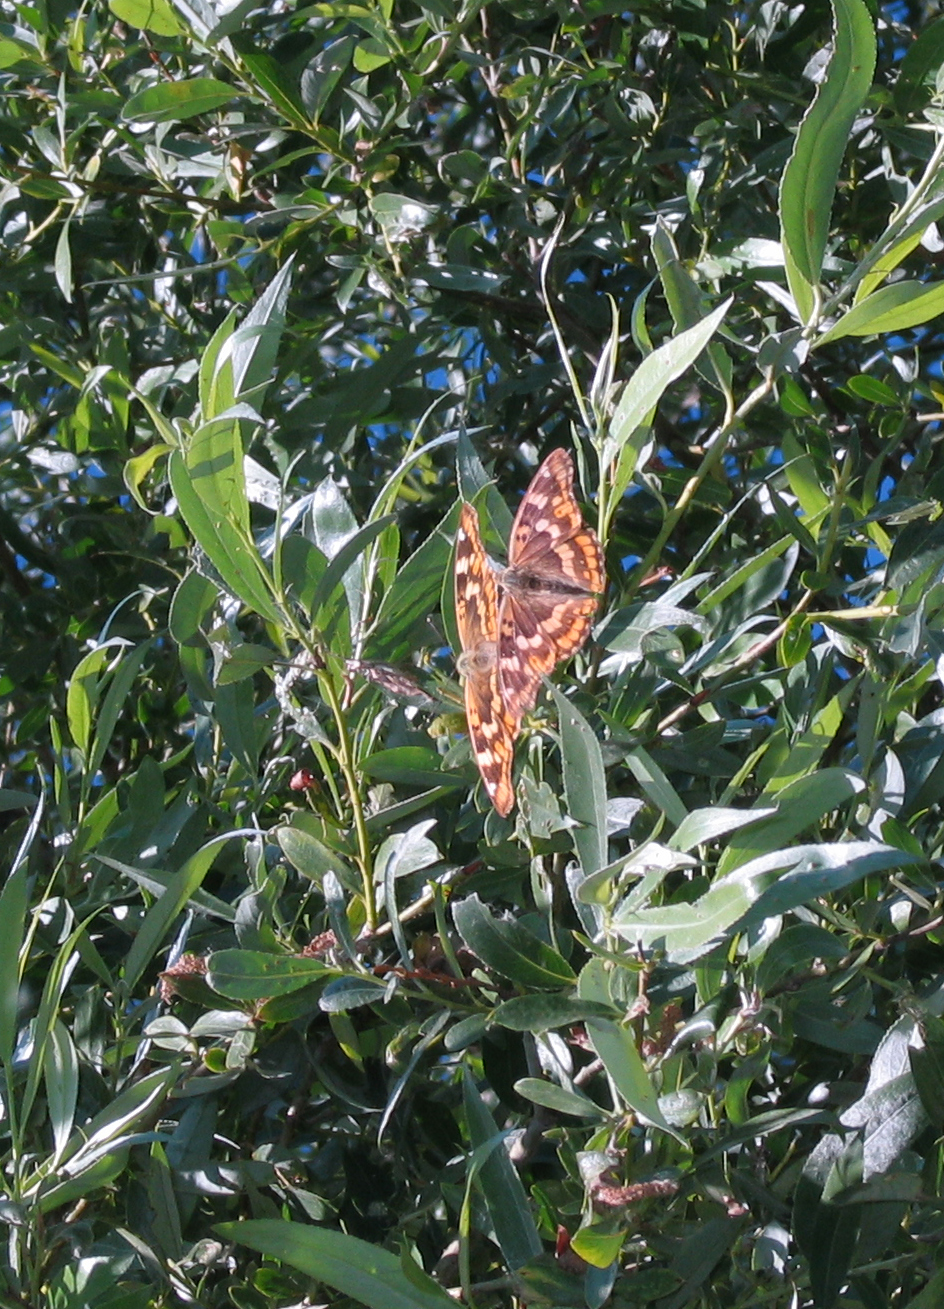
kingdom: Animalia
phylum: Arthropoda
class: Insecta
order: Lepidoptera
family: Nymphalidae
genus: Apatura
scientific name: Apatura ilia
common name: Lesser purple emperor
